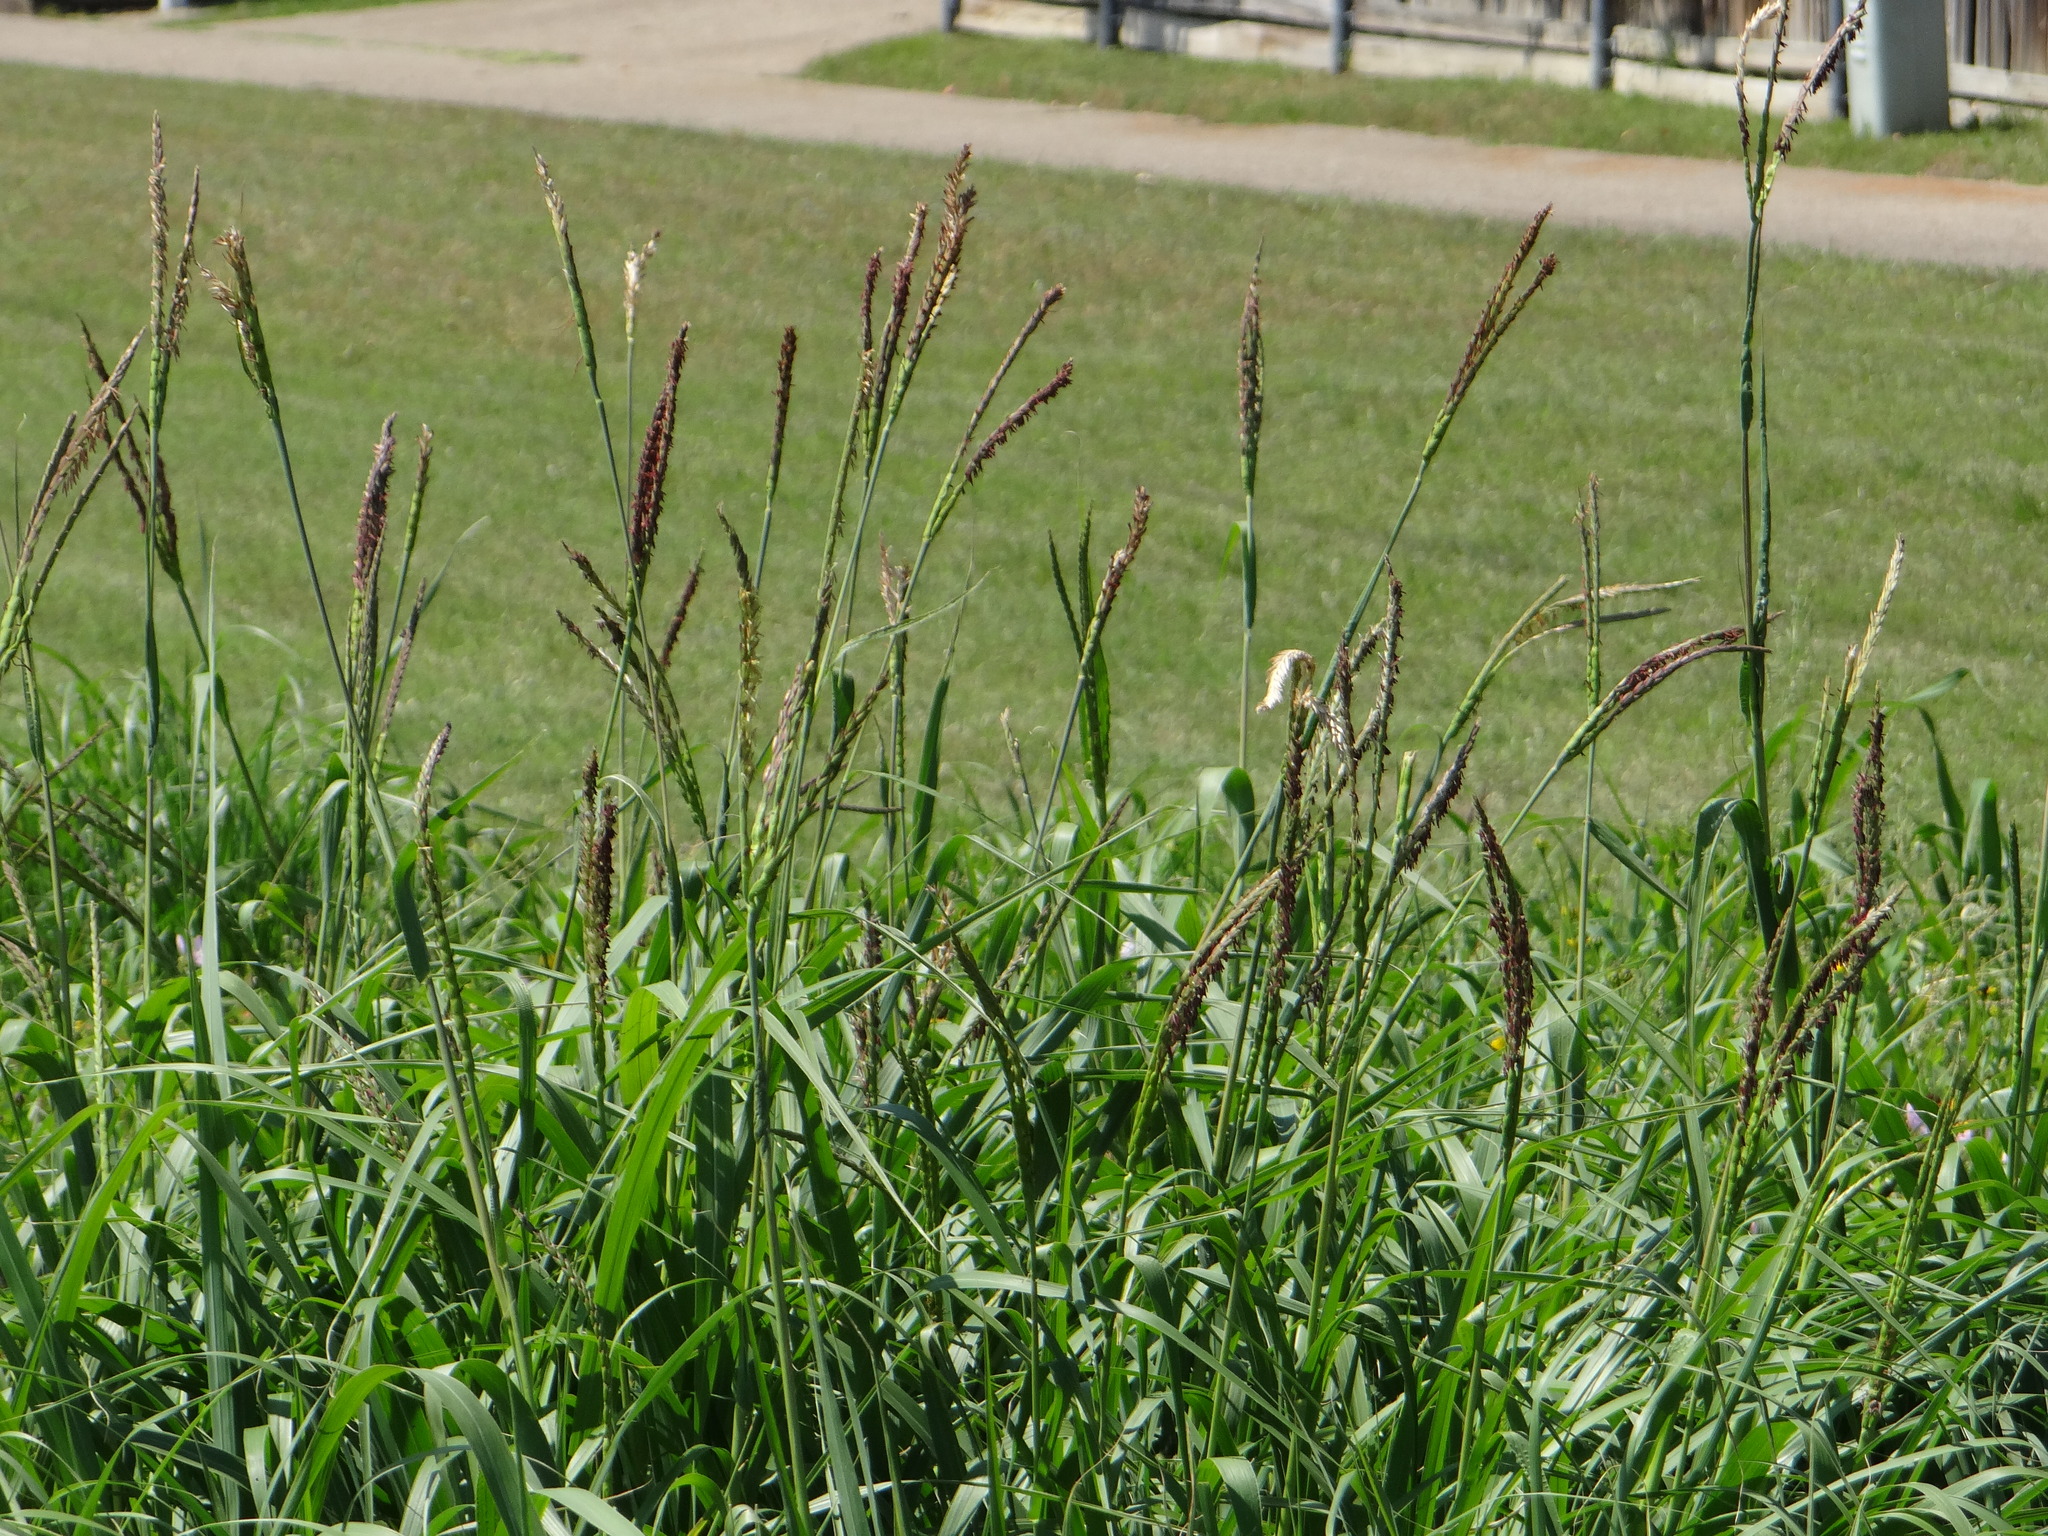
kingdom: Plantae
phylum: Tracheophyta
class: Liliopsida
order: Poales
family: Poaceae
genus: Tripsacum
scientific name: Tripsacum dactyloides
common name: Buffalo-grass
